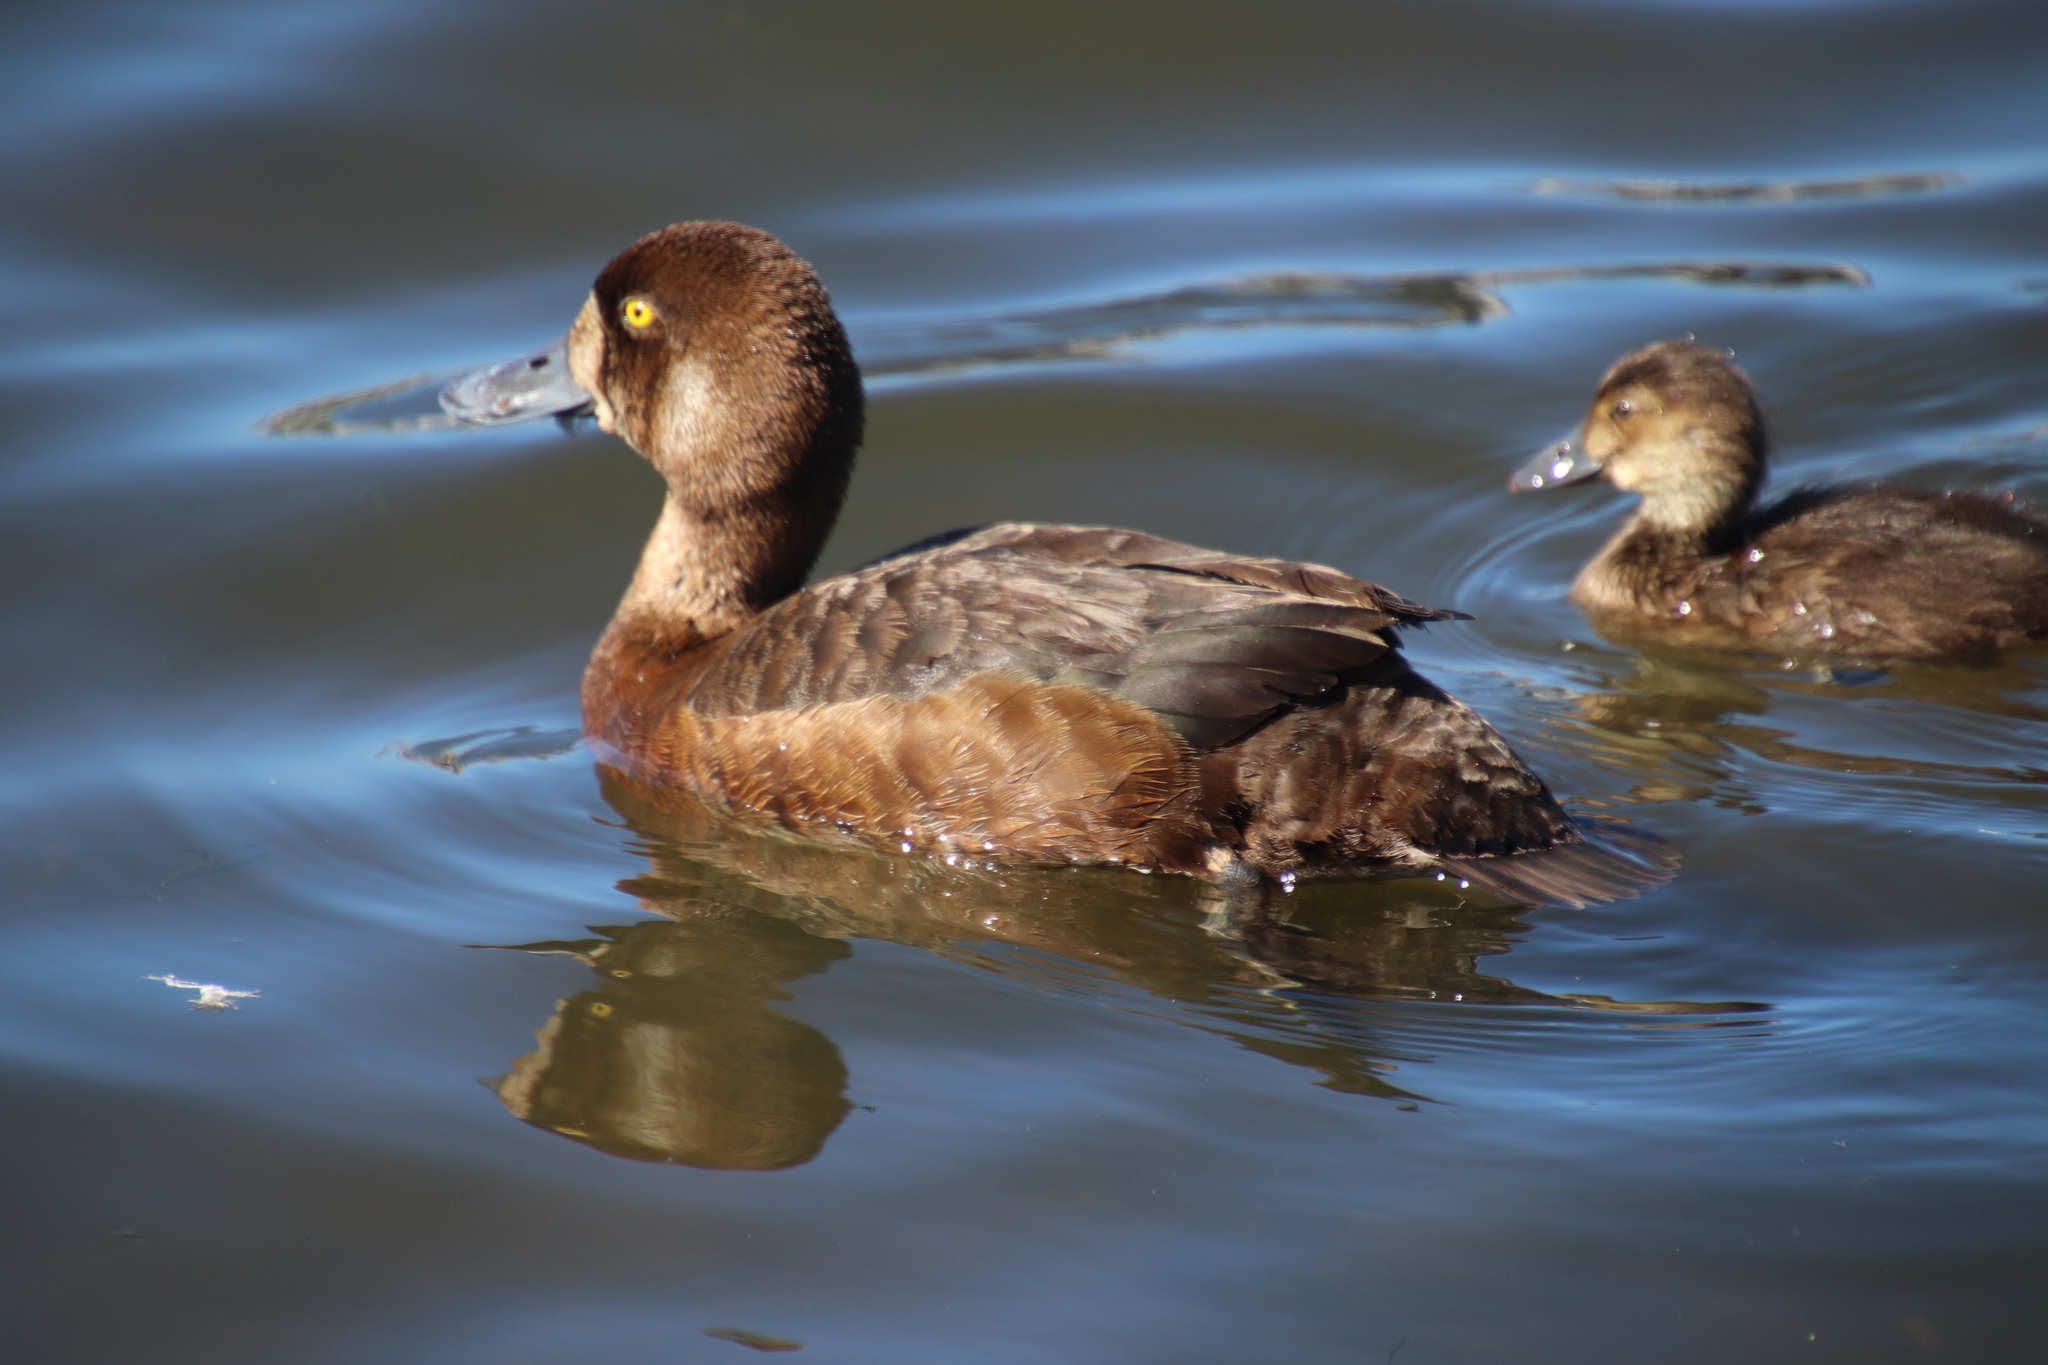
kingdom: Animalia
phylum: Chordata
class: Aves
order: Anseriformes
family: Anatidae
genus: Aythya
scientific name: Aythya marila
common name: Greater scaup
